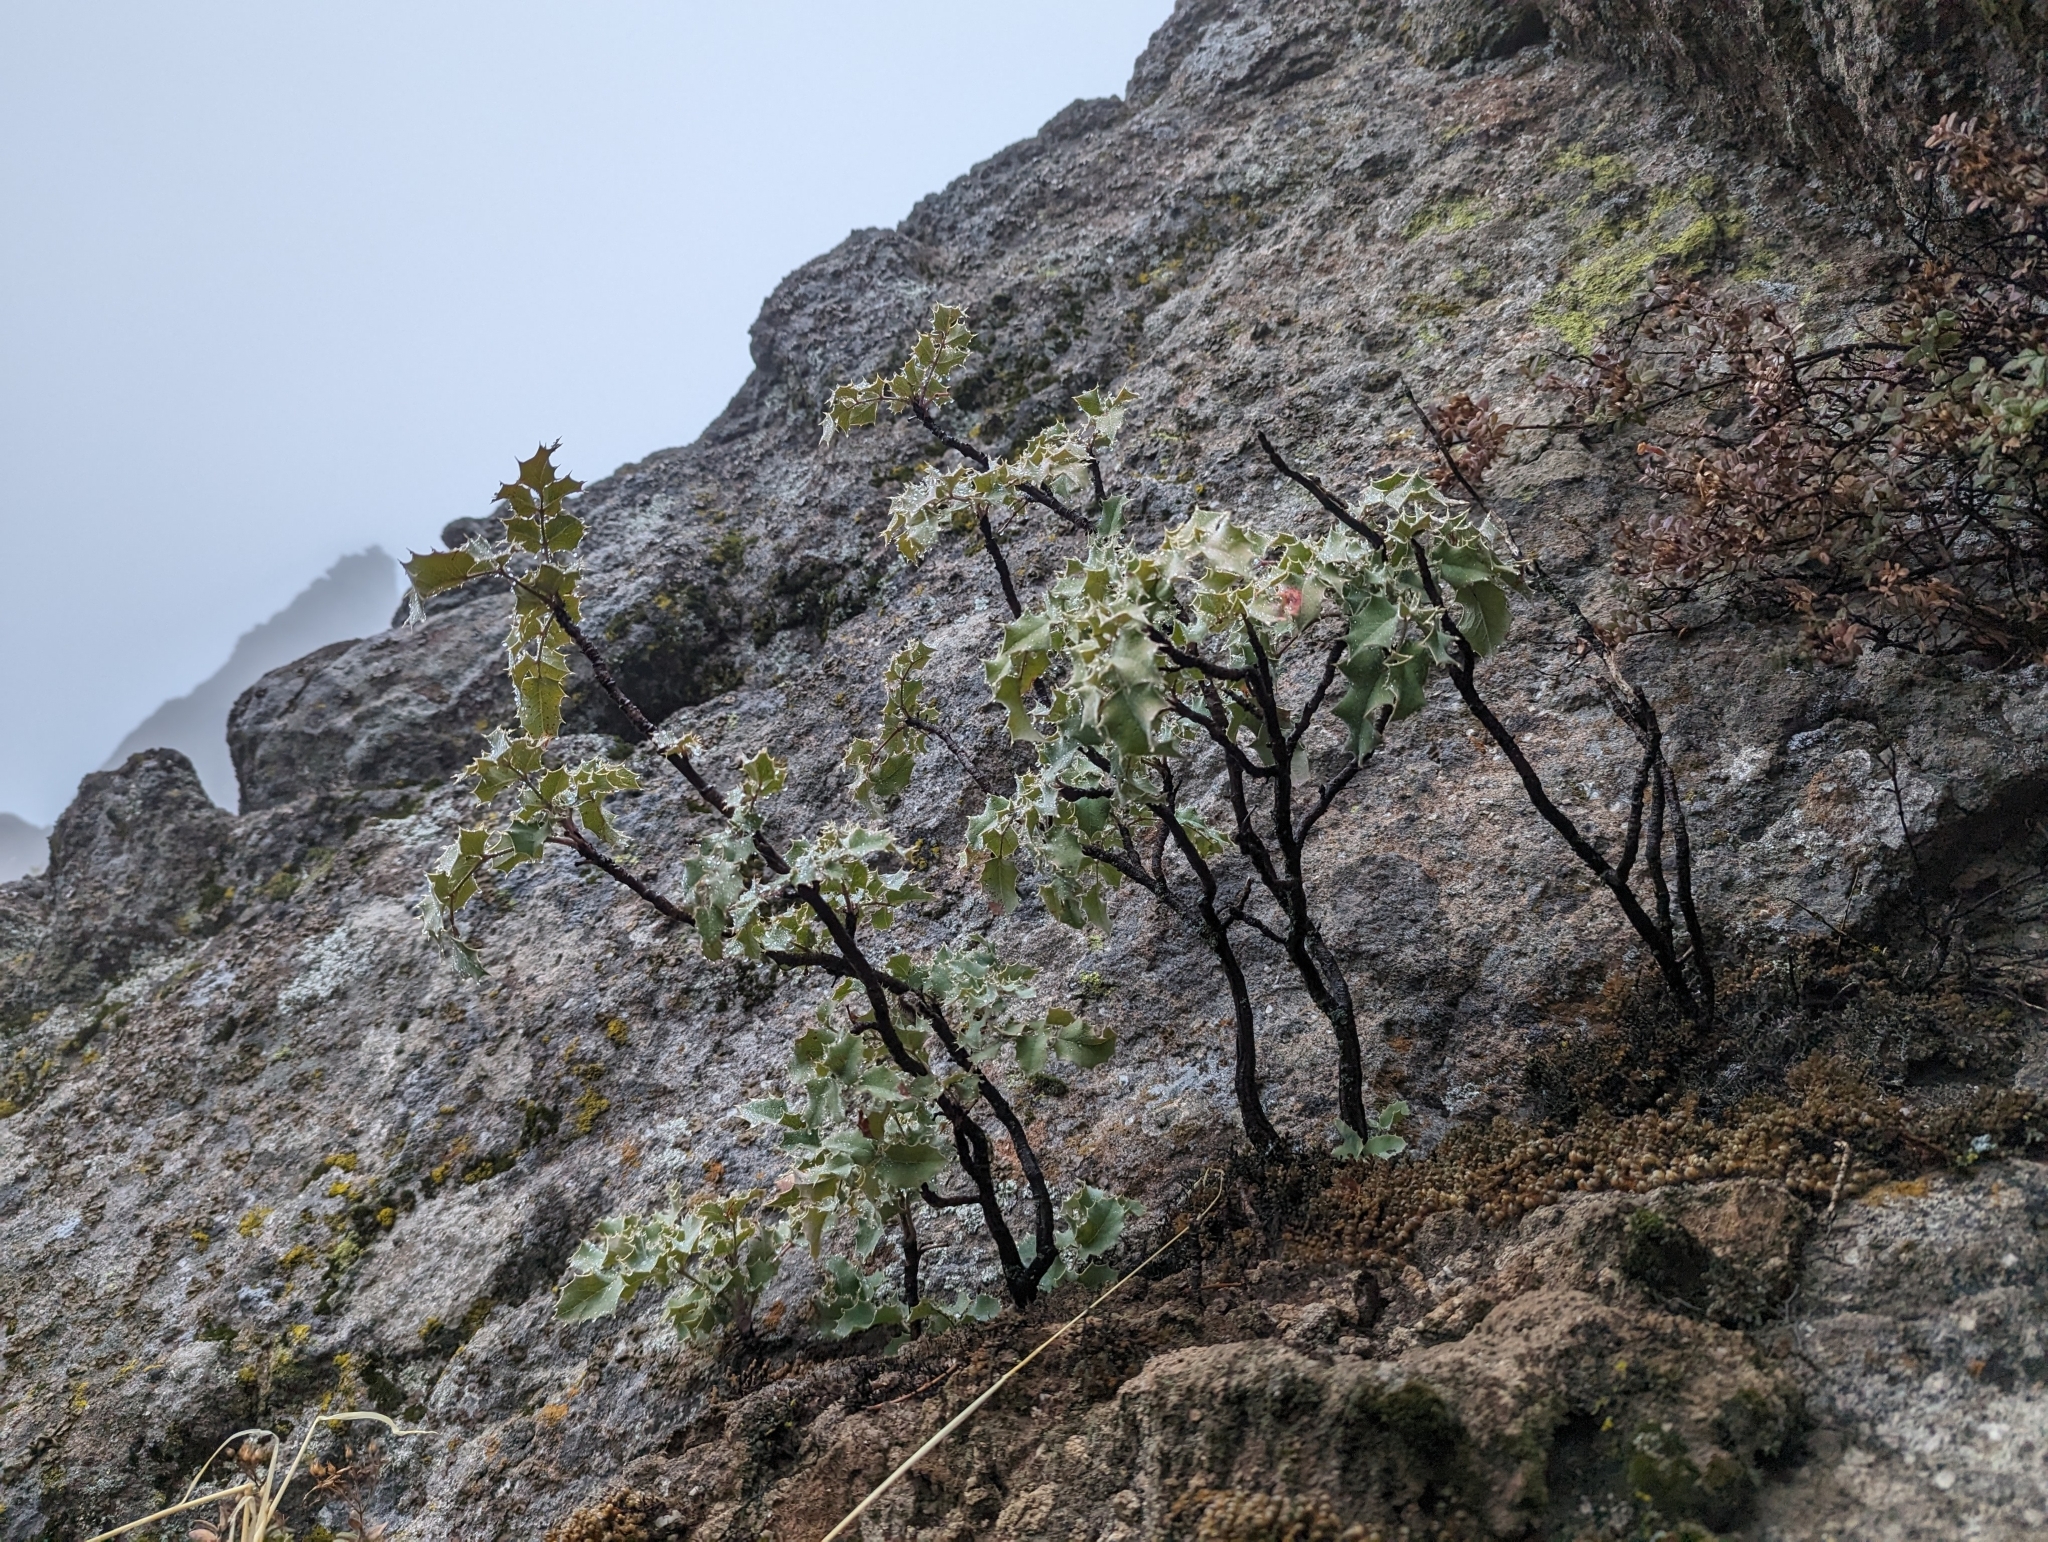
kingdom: Plantae
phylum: Tracheophyta
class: Magnoliopsida
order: Ranunculales
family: Berberidaceae
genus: Mahonia
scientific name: Mahonia dictyota
